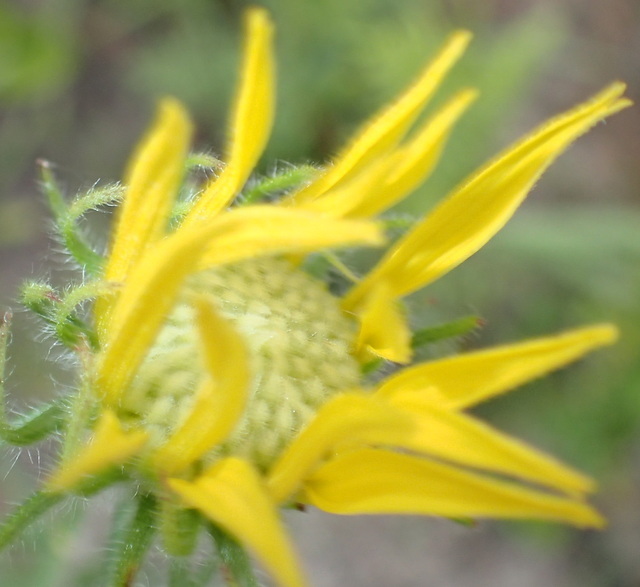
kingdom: Plantae
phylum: Tracheophyta
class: Magnoliopsida
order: Asterales
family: Asteraceae
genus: Phoebanthus
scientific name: Phoebanthus tenuifolia
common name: Pineland false sunflower
